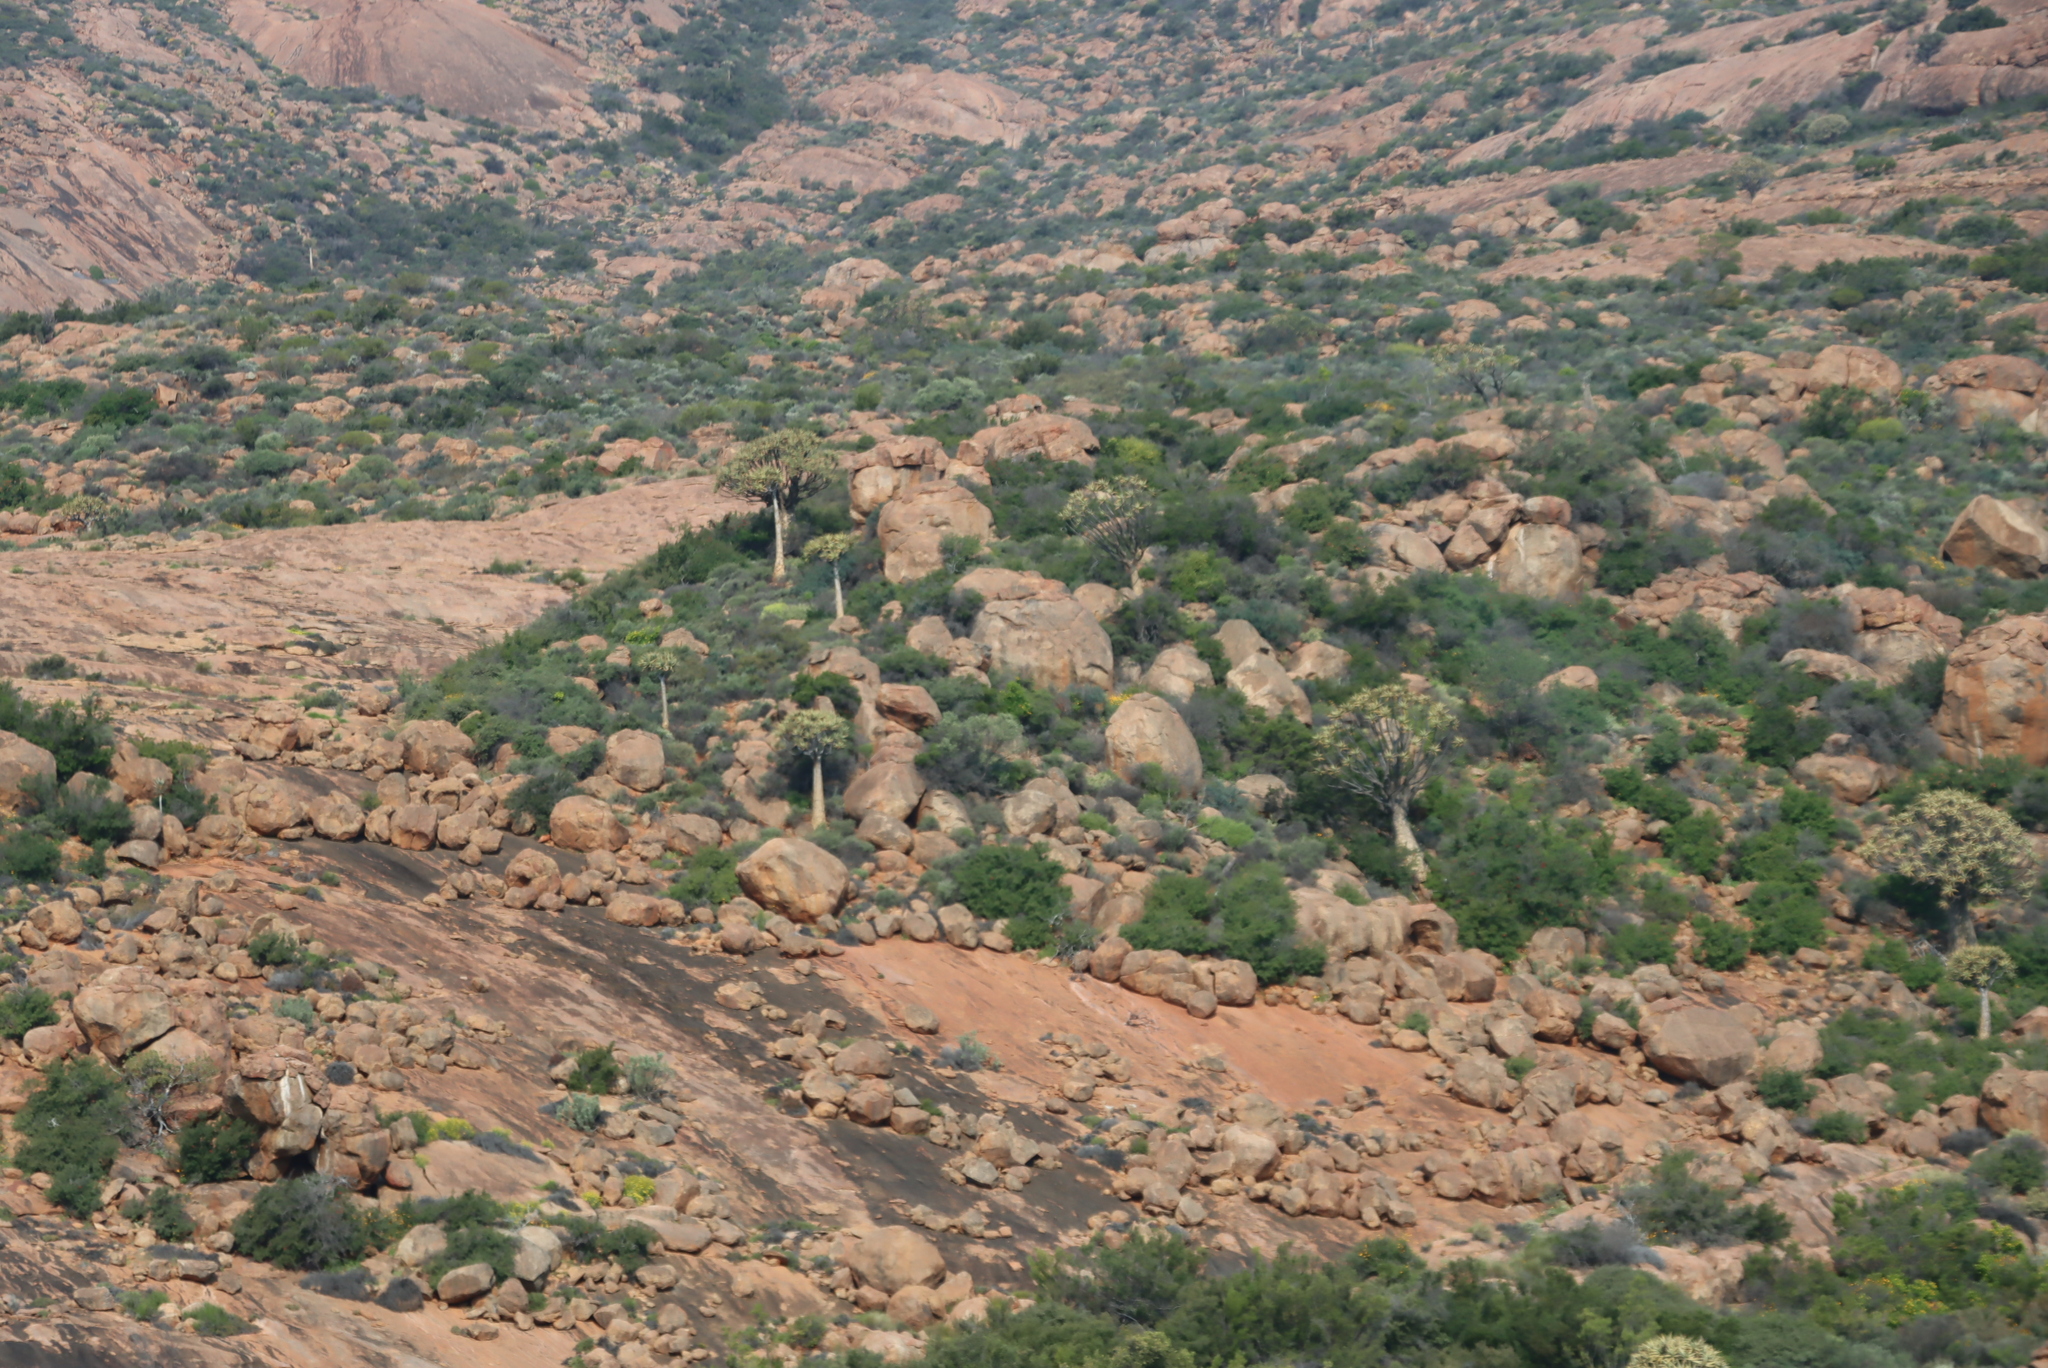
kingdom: Plantae
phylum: Tracheophyta
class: Liliopsida
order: Asparagales
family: Asphodelaceae
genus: Aloidendron
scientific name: Aloidendron dichotomum
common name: Quiver tree
